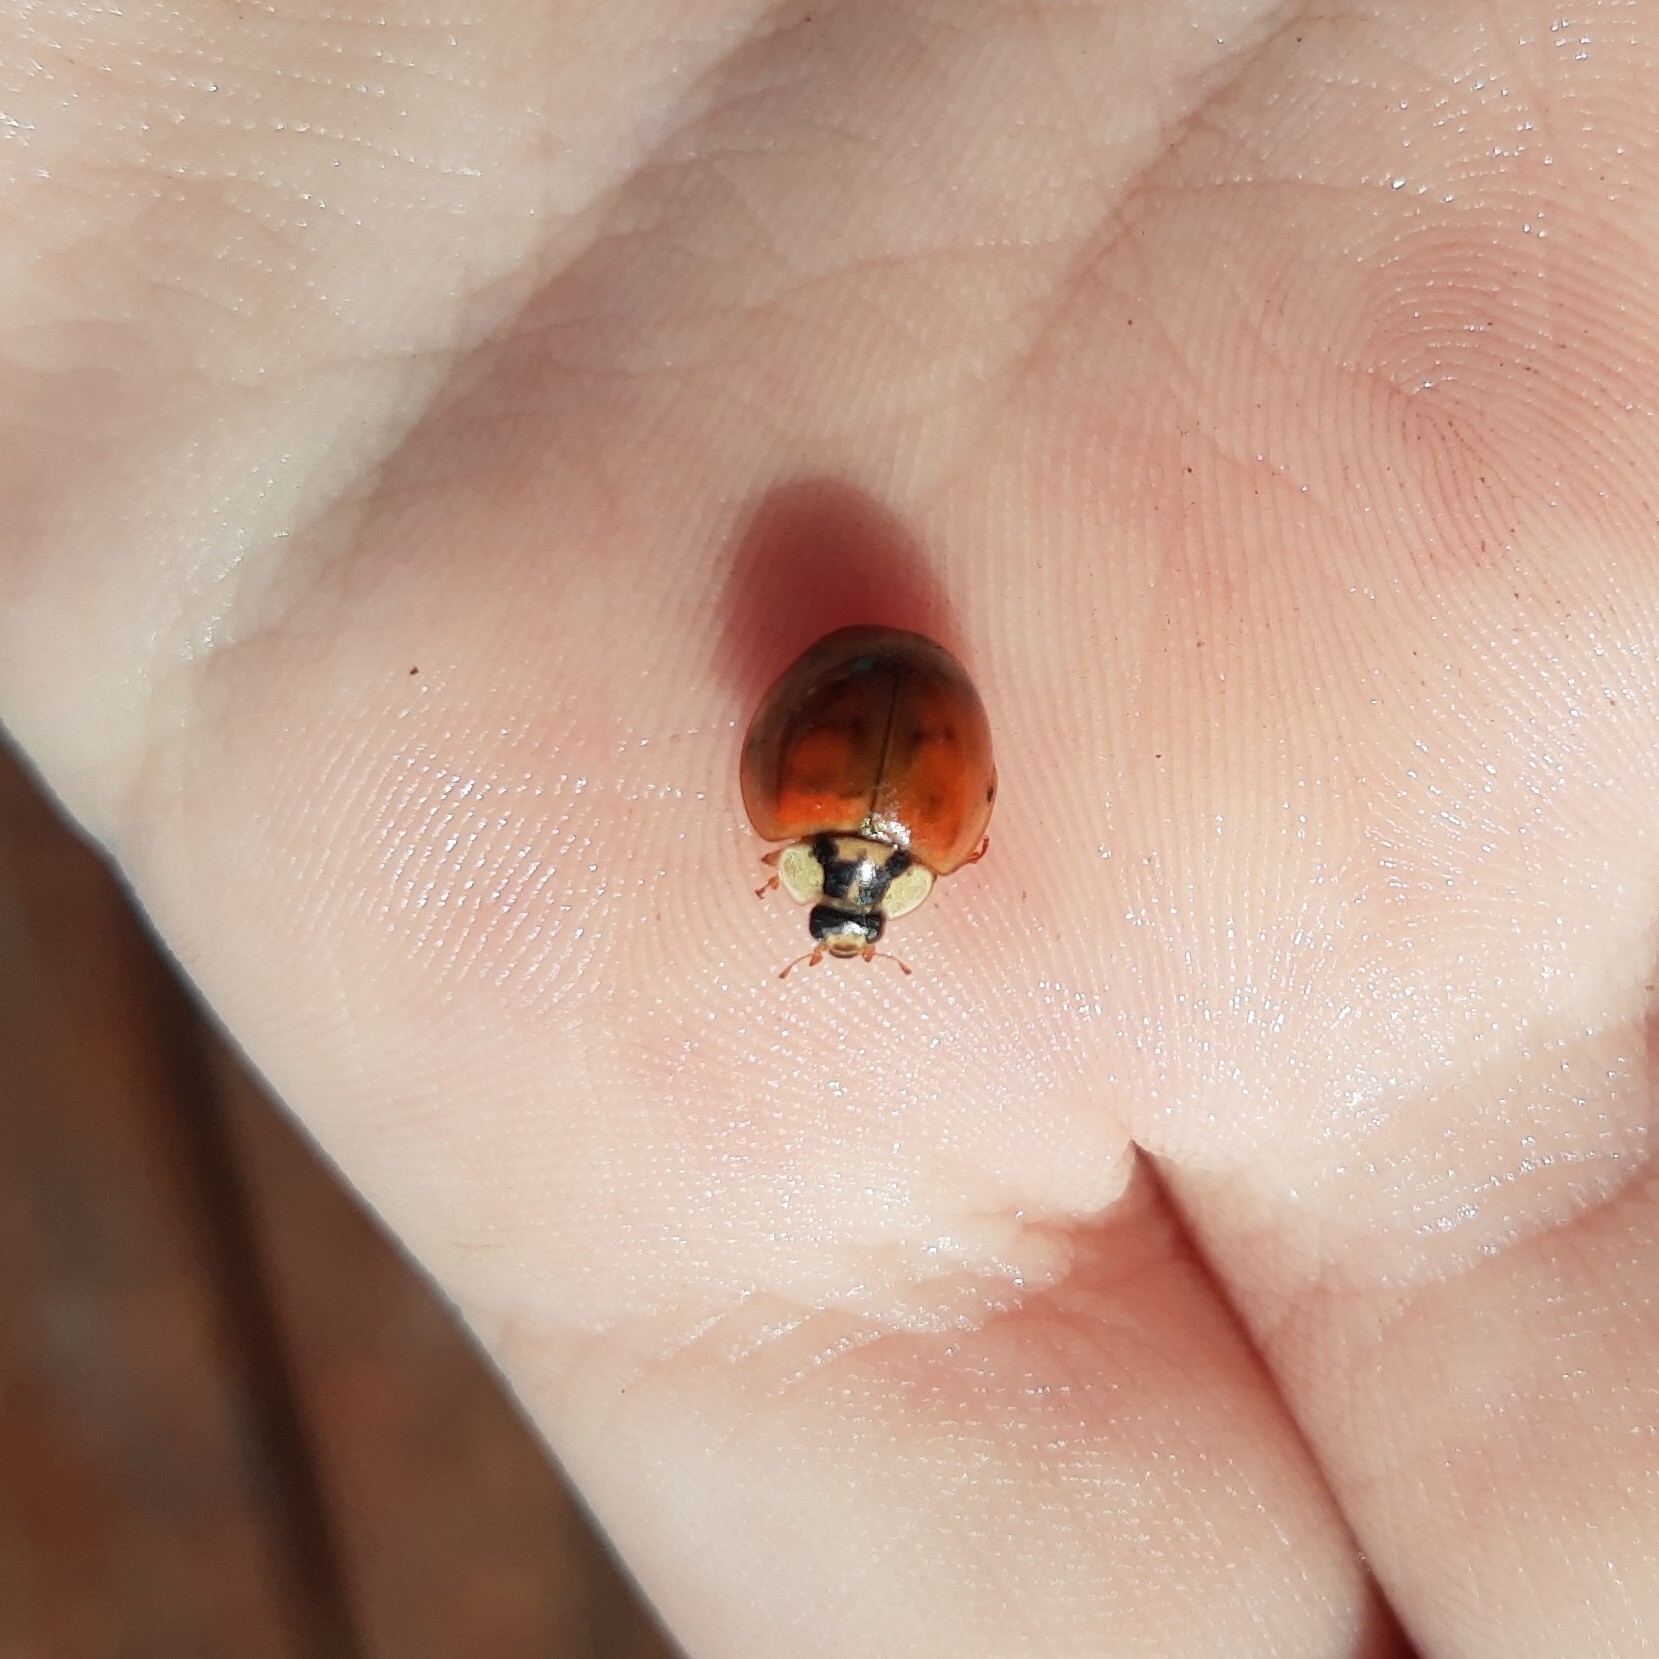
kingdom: Animalia
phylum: Arthropoda
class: Insecta
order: Coleoptera
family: Coccinellidae
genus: Harmonia
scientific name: Harmonia axyridis
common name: Harlequin ladybird
